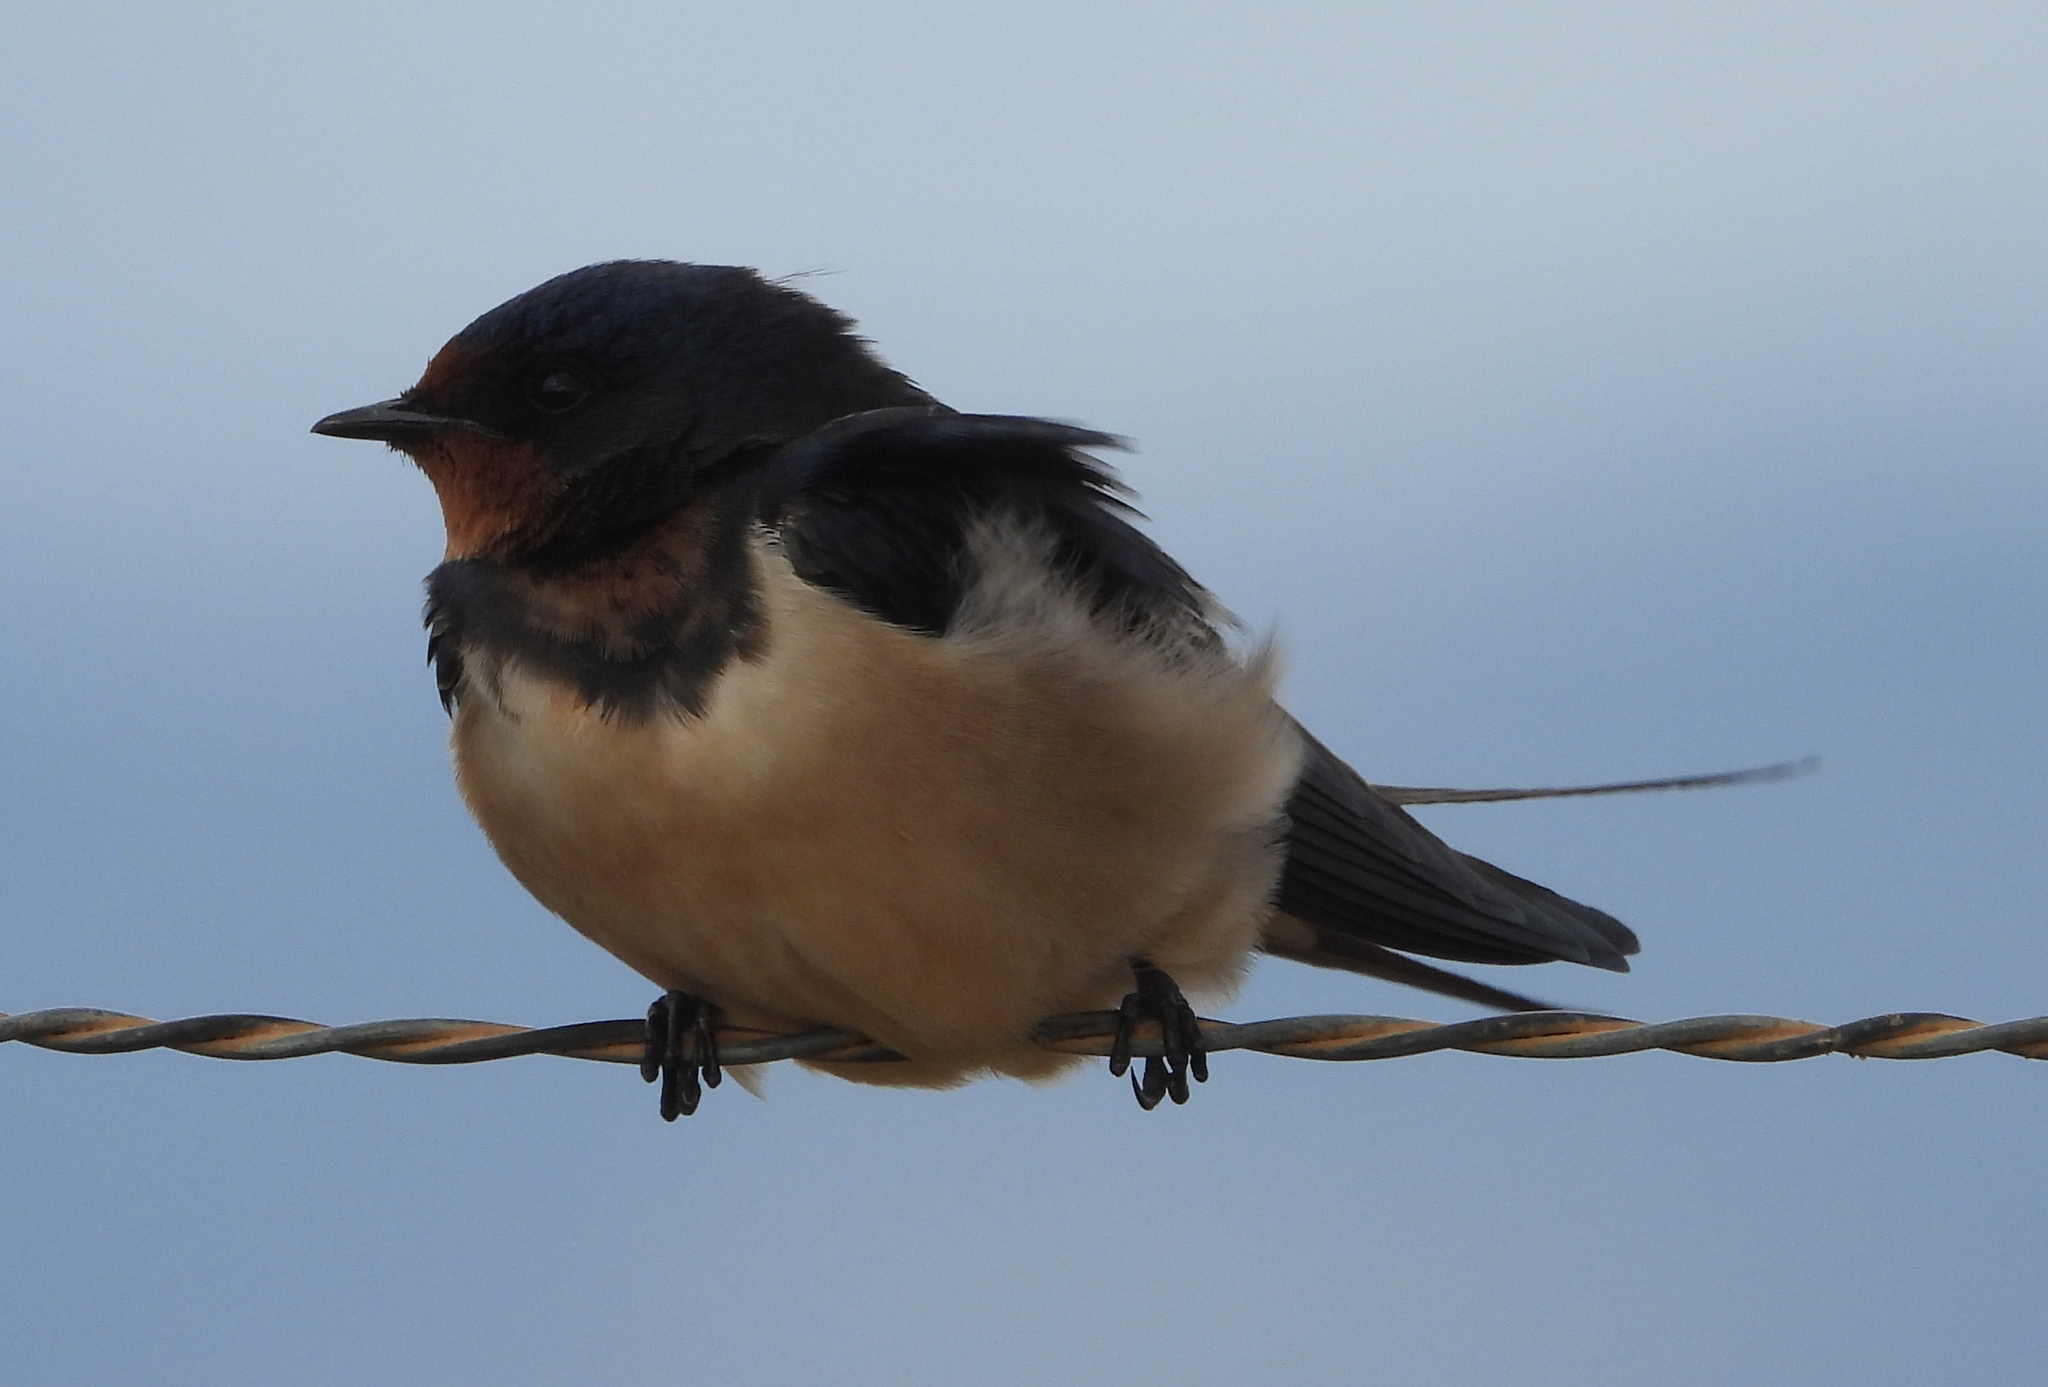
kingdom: Animalia
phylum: Chordata
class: Aves
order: Passeriformes
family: Hirundinidae
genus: Hirundo
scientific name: Hirundo rustica
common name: Barn swallow
